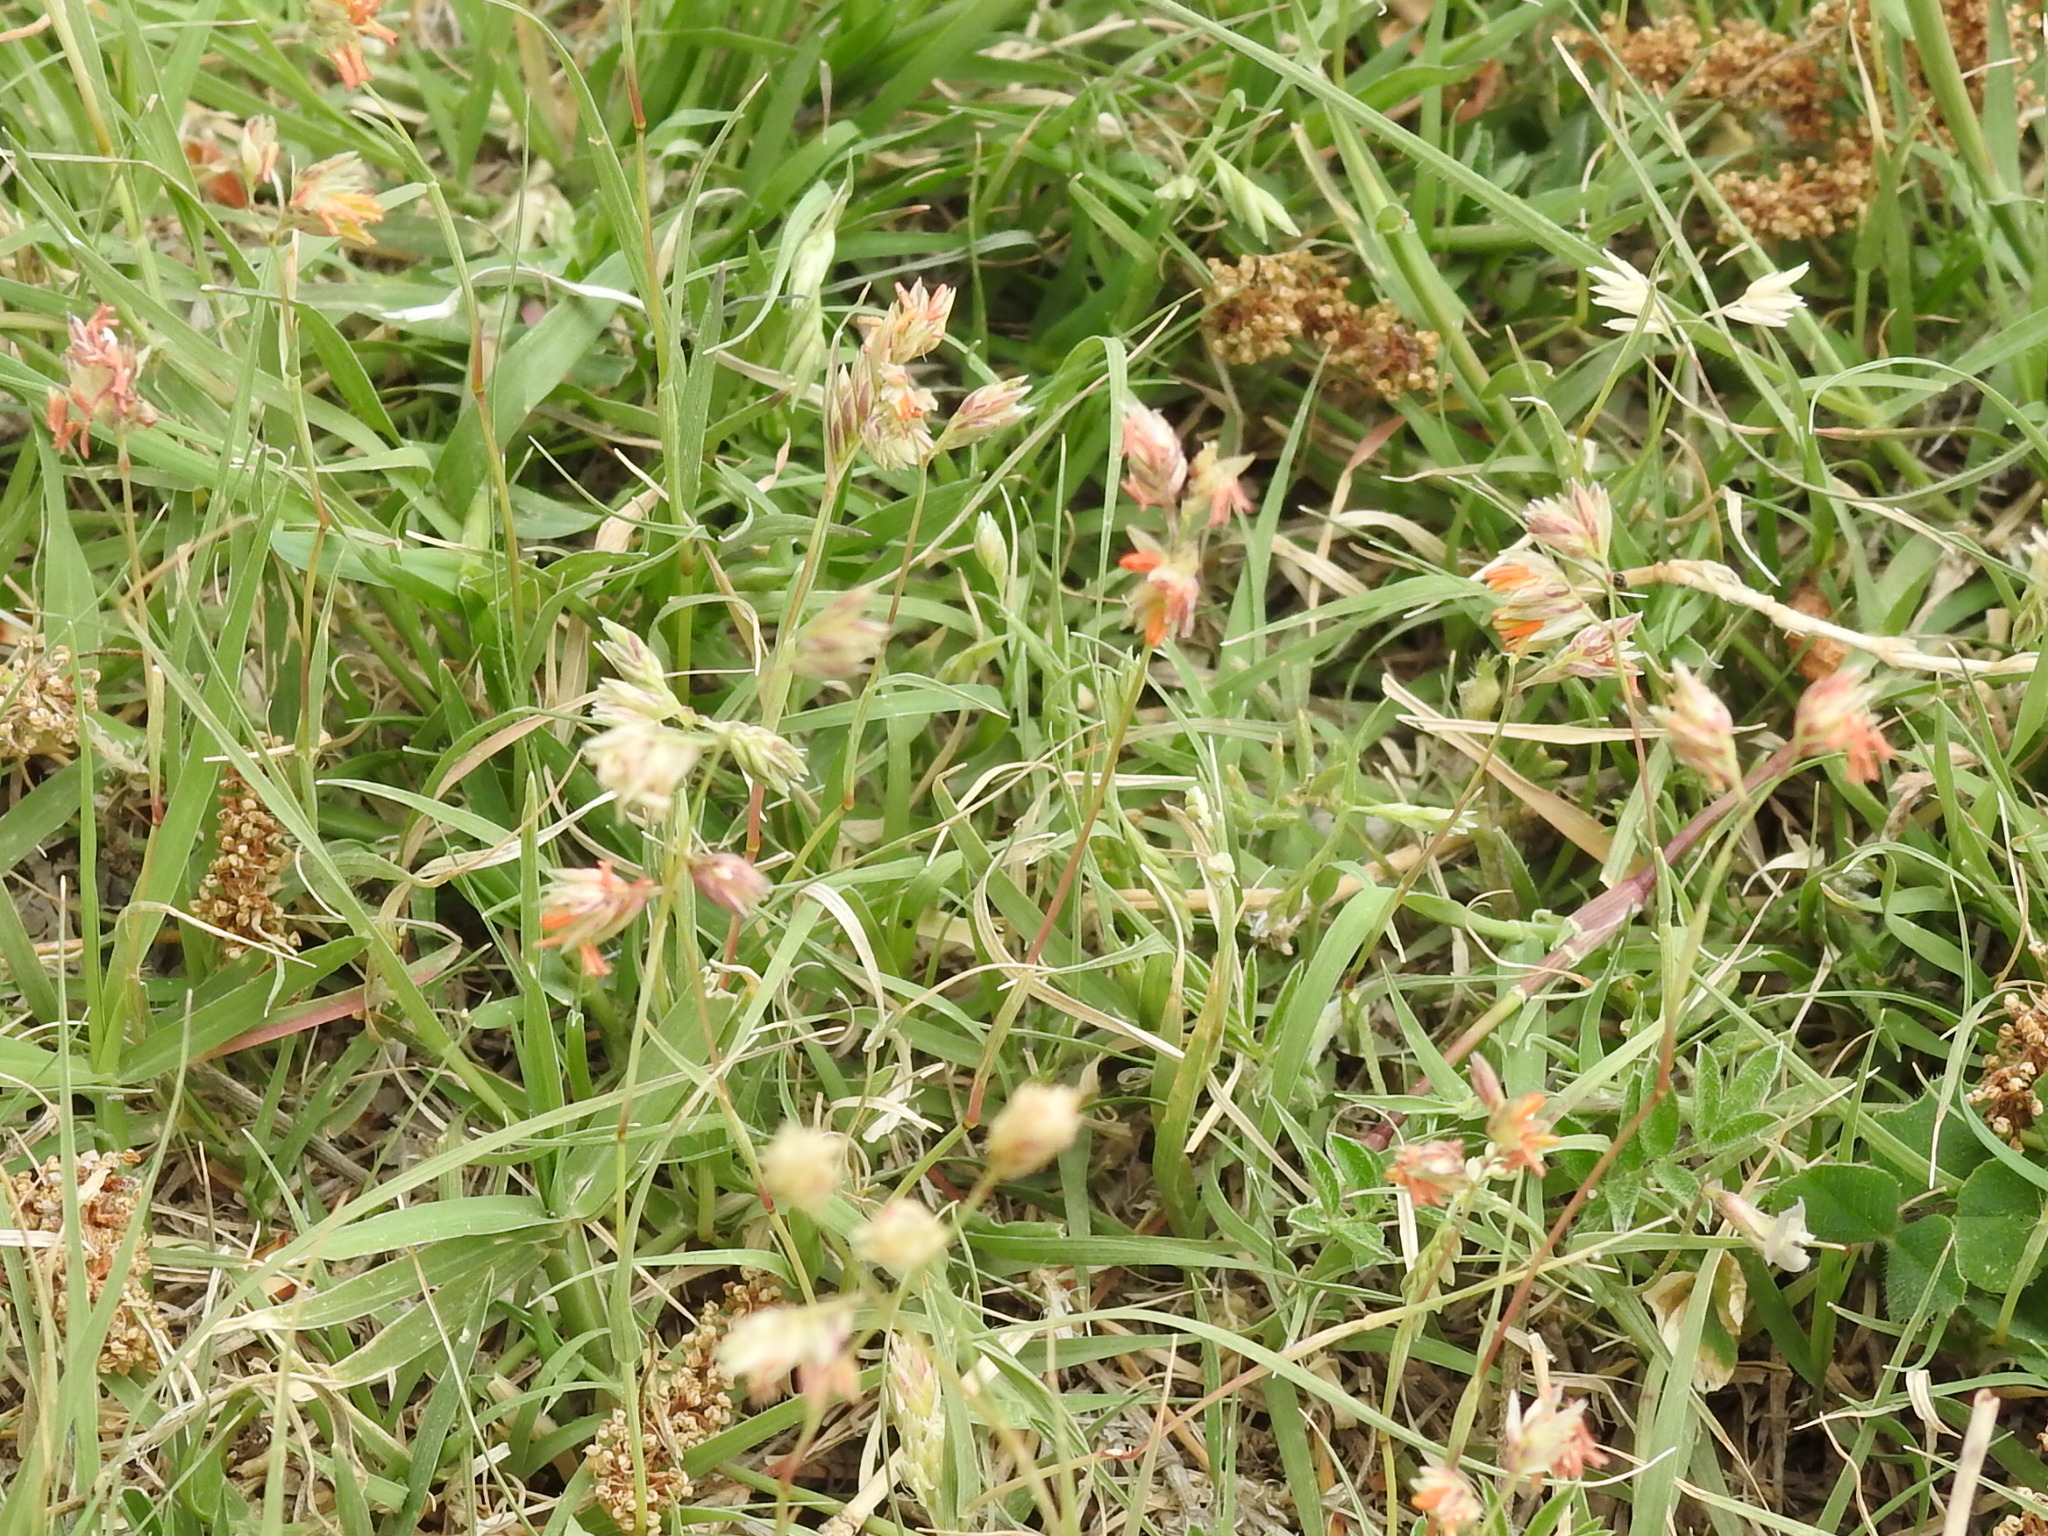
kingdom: Plantae
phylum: Tracheophyta
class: Liliopsida
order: Poales
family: Poaceae
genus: Bouteloua
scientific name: Bouteloua dactyloides
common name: Buffalo grass
